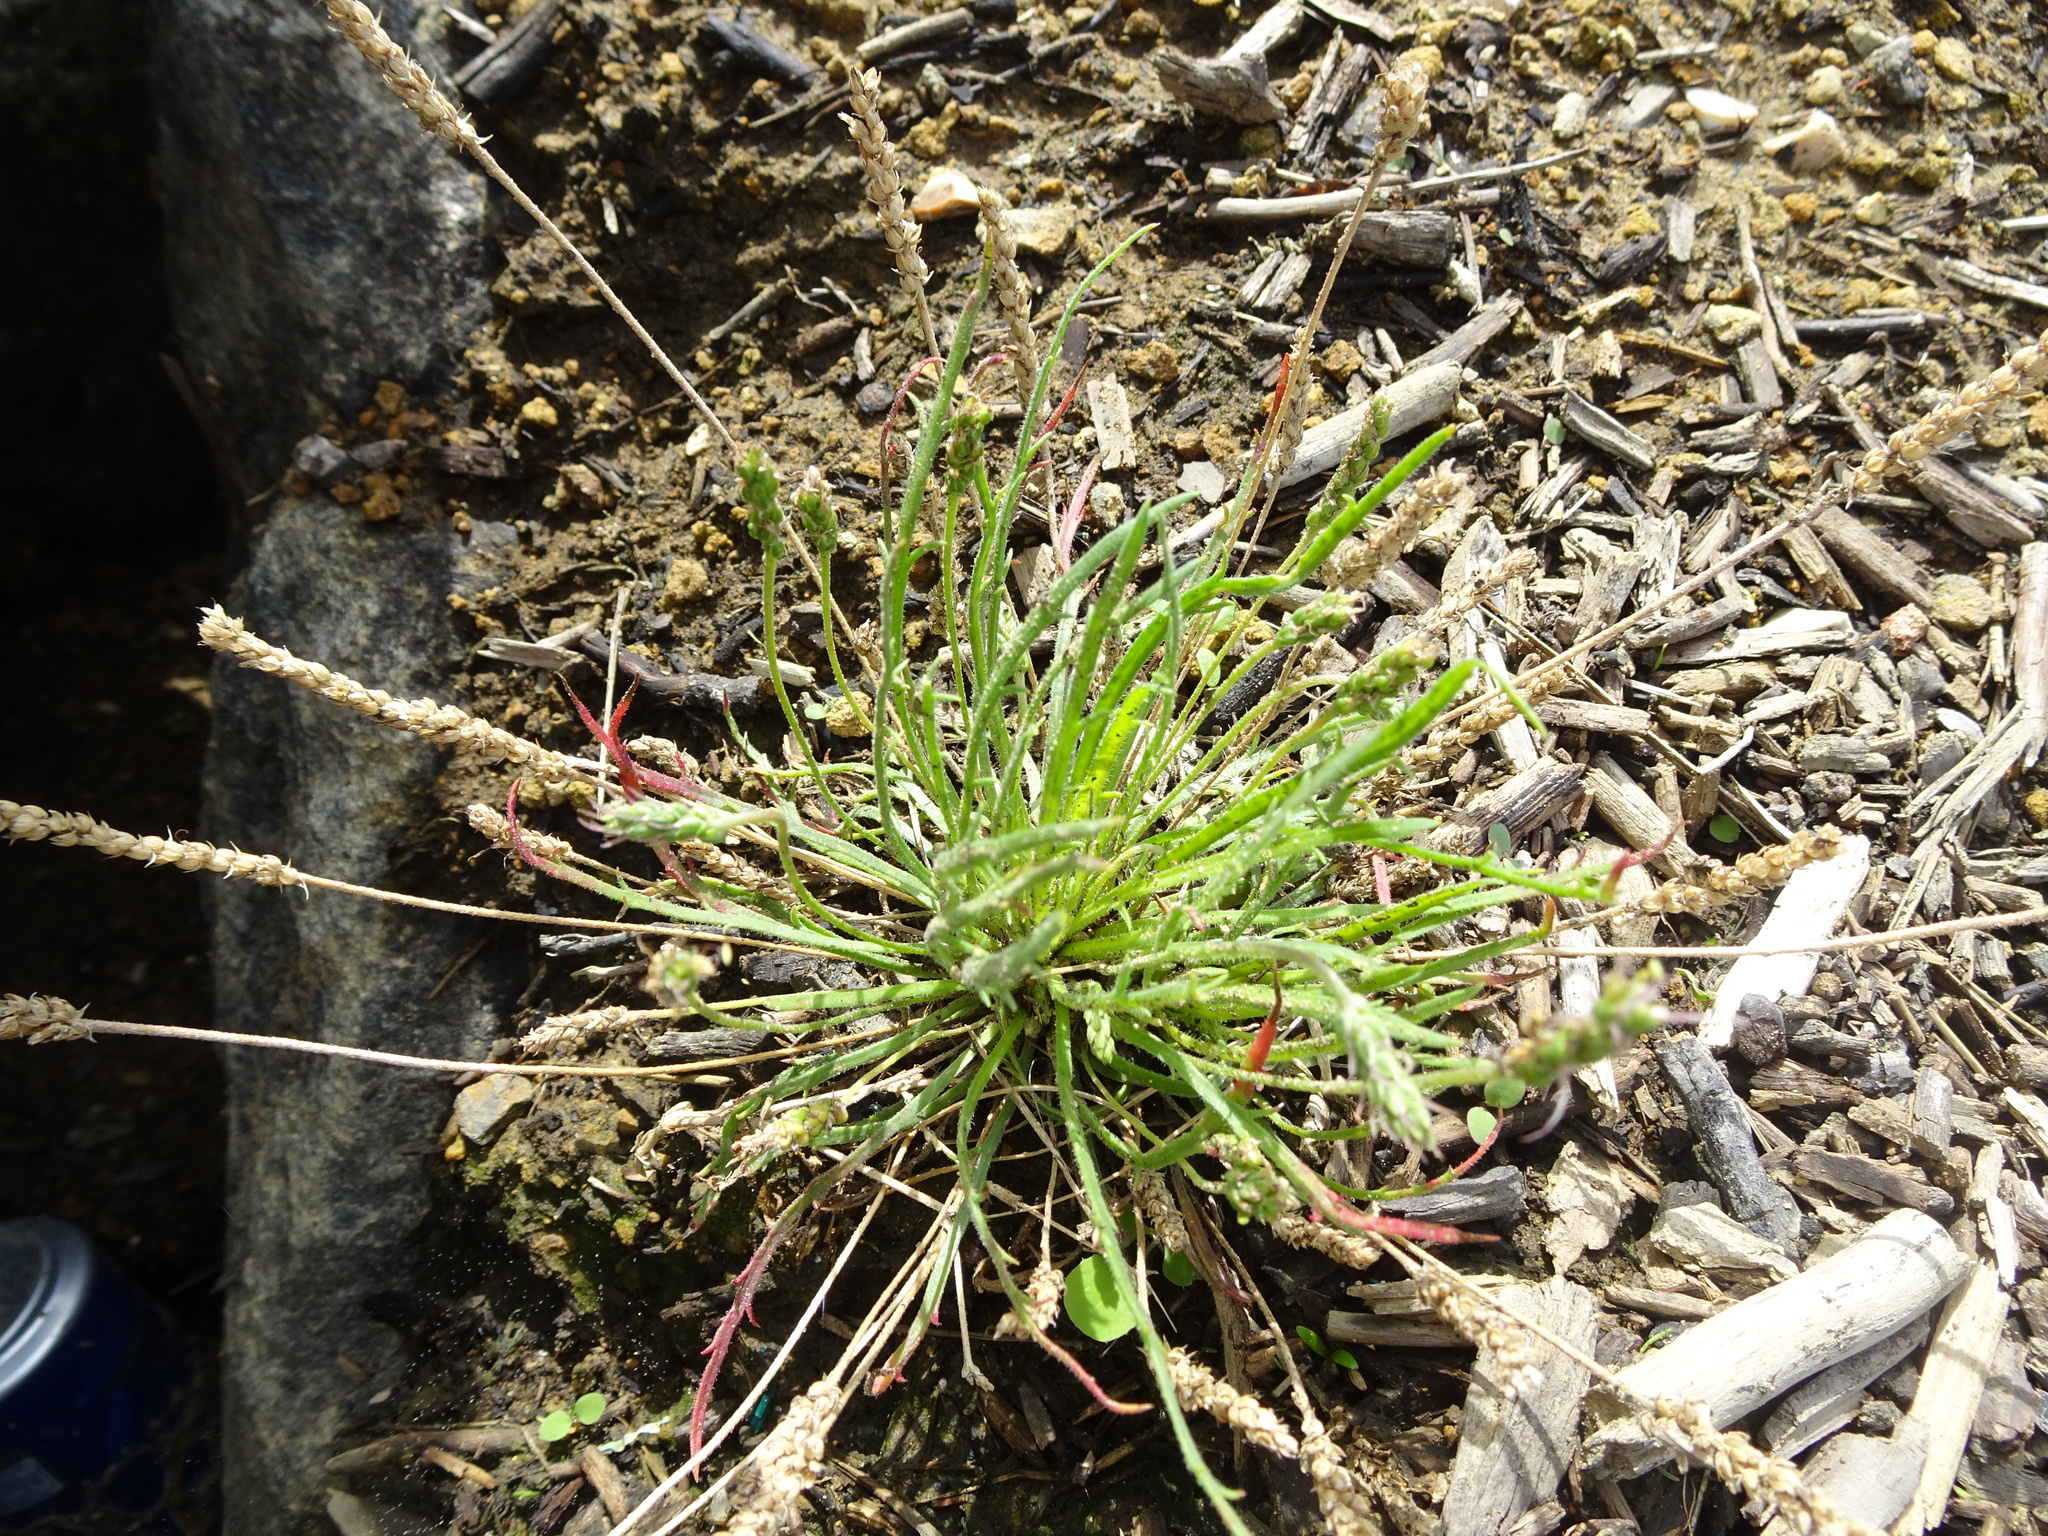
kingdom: Plantae
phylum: Tracheophyta
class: Magnoliopsida
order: Lamiales
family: Plantaginaceae
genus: Plantago
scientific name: Plantago coronopus
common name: Buck's-horn plantain
